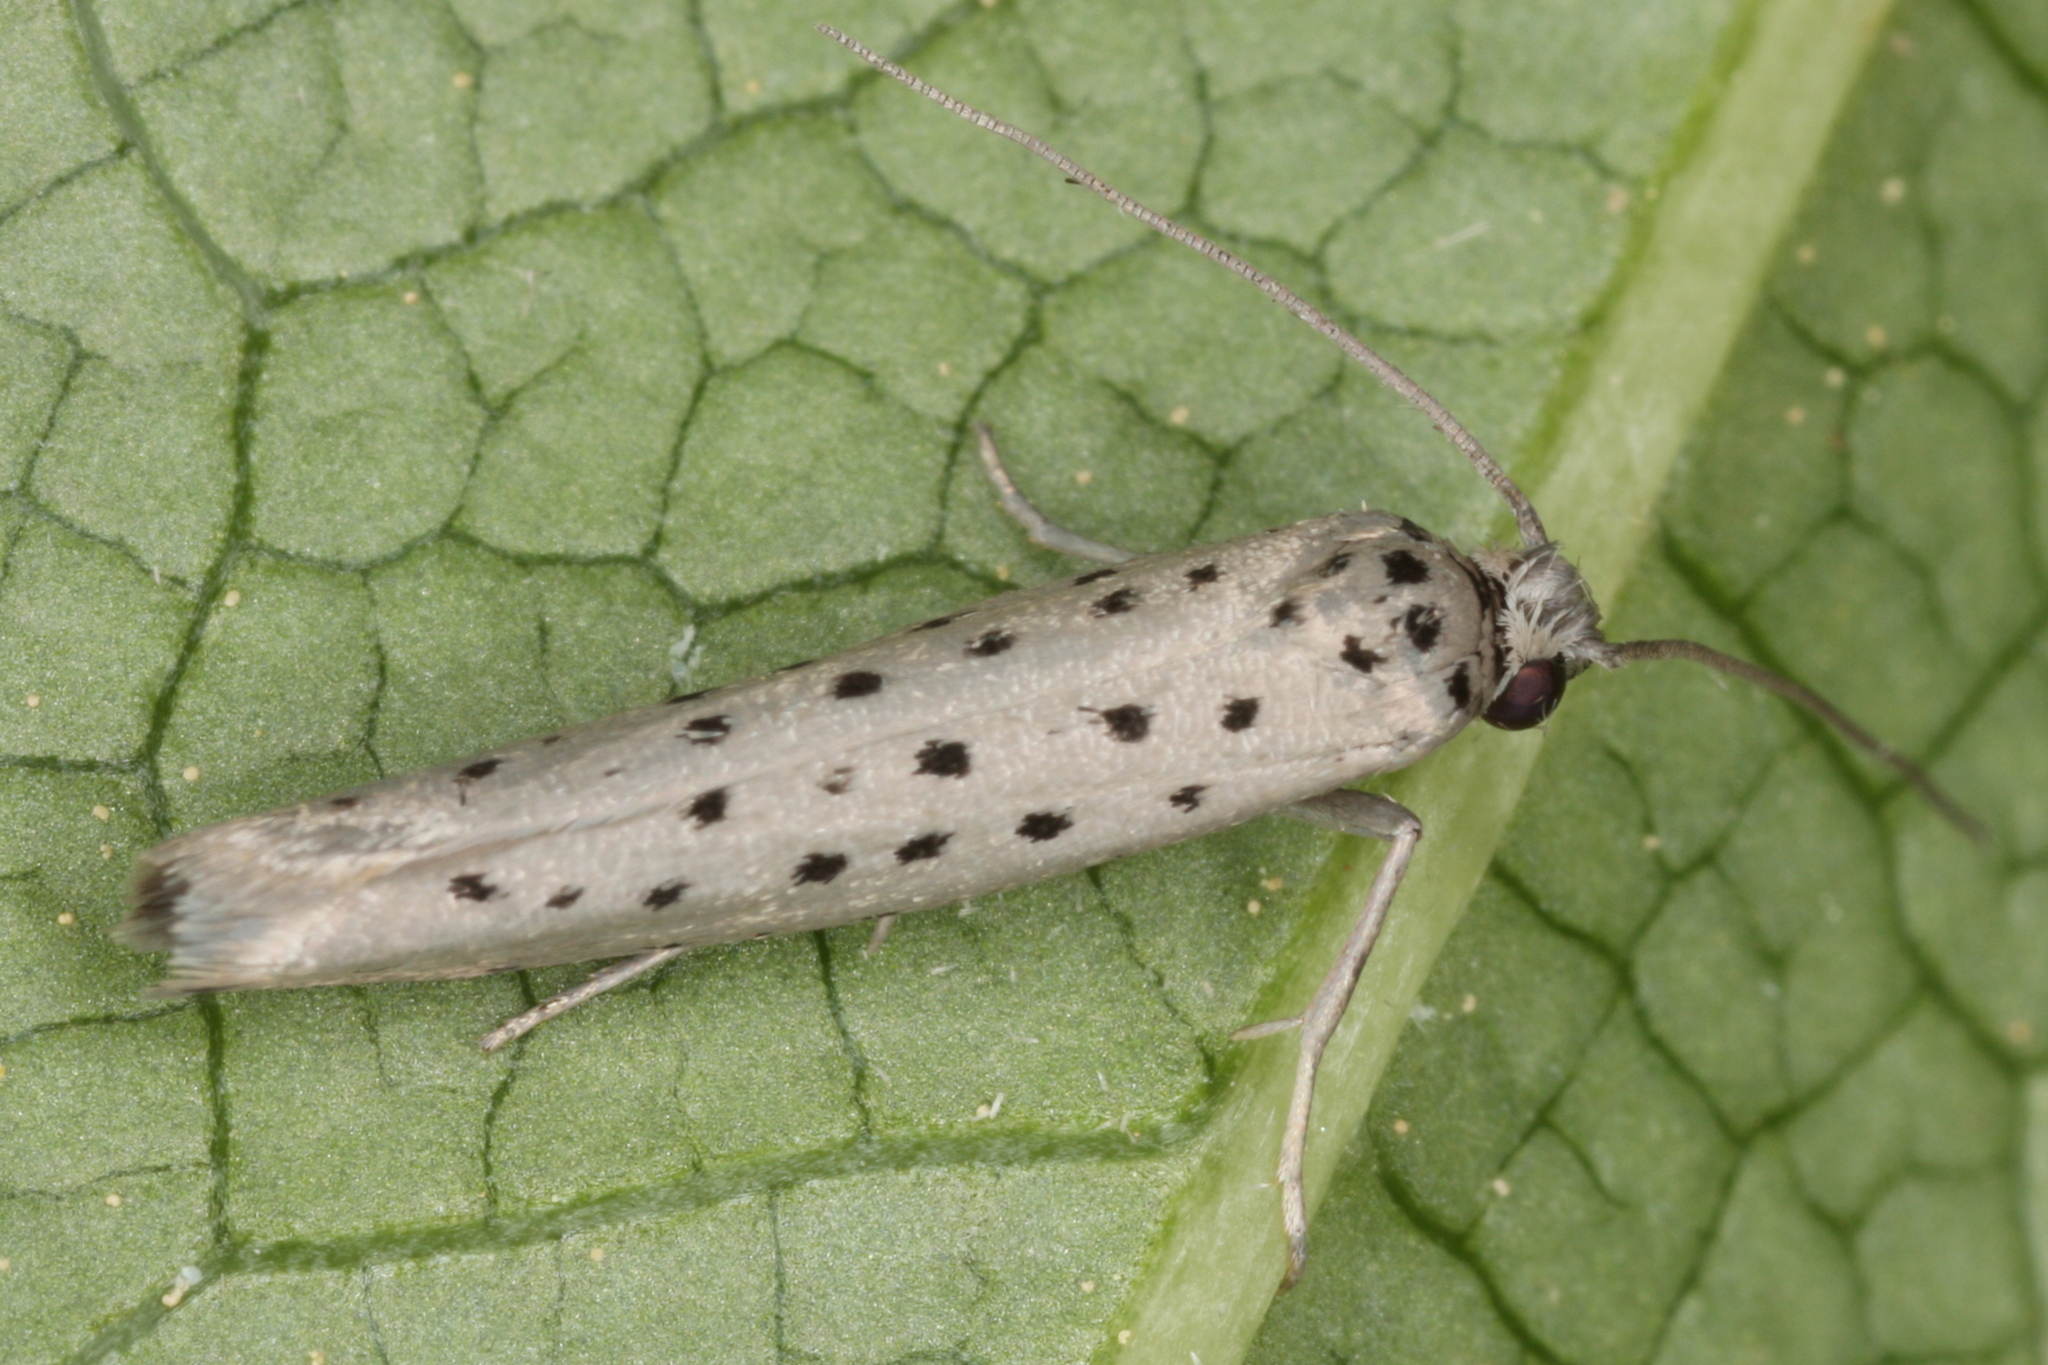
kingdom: Animalia
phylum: Arthropoda
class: Insecta
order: Lepidoptera
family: Yponomeutidae
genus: Yponomeuta
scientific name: Yponomeuta vigintipunctata
